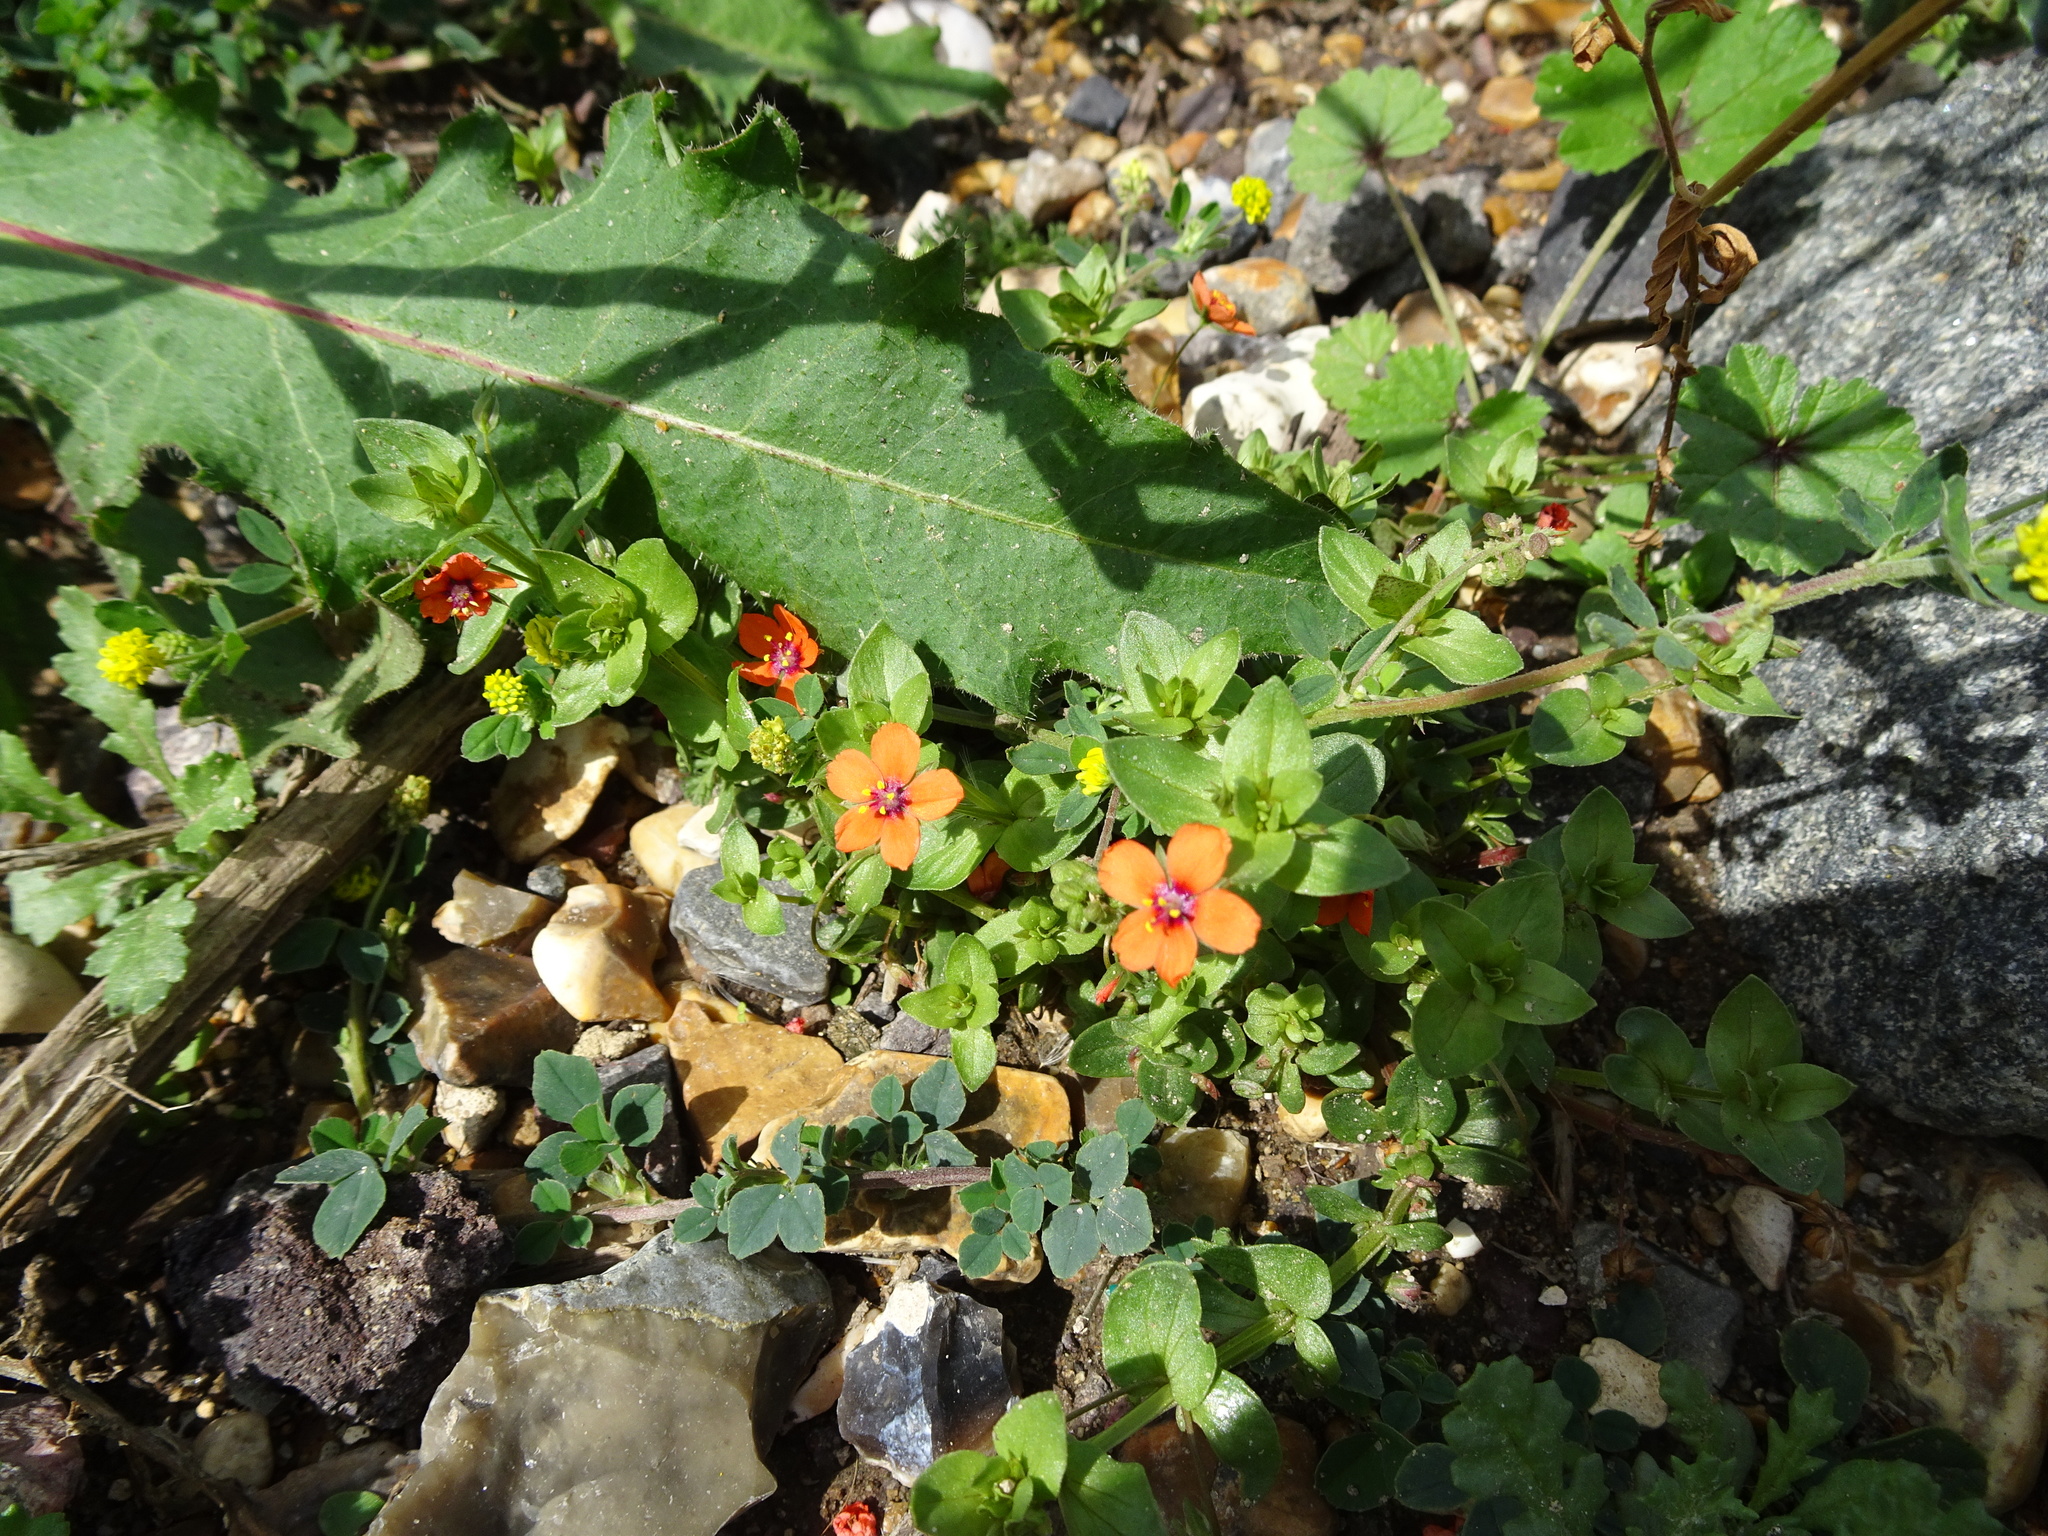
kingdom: Plantae
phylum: Tracheophyta
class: Magnoliopsida
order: Ericales
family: Primulaceae
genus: Lysimachia
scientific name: Lysimachia arvensis
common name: Scarlet pimpernel
